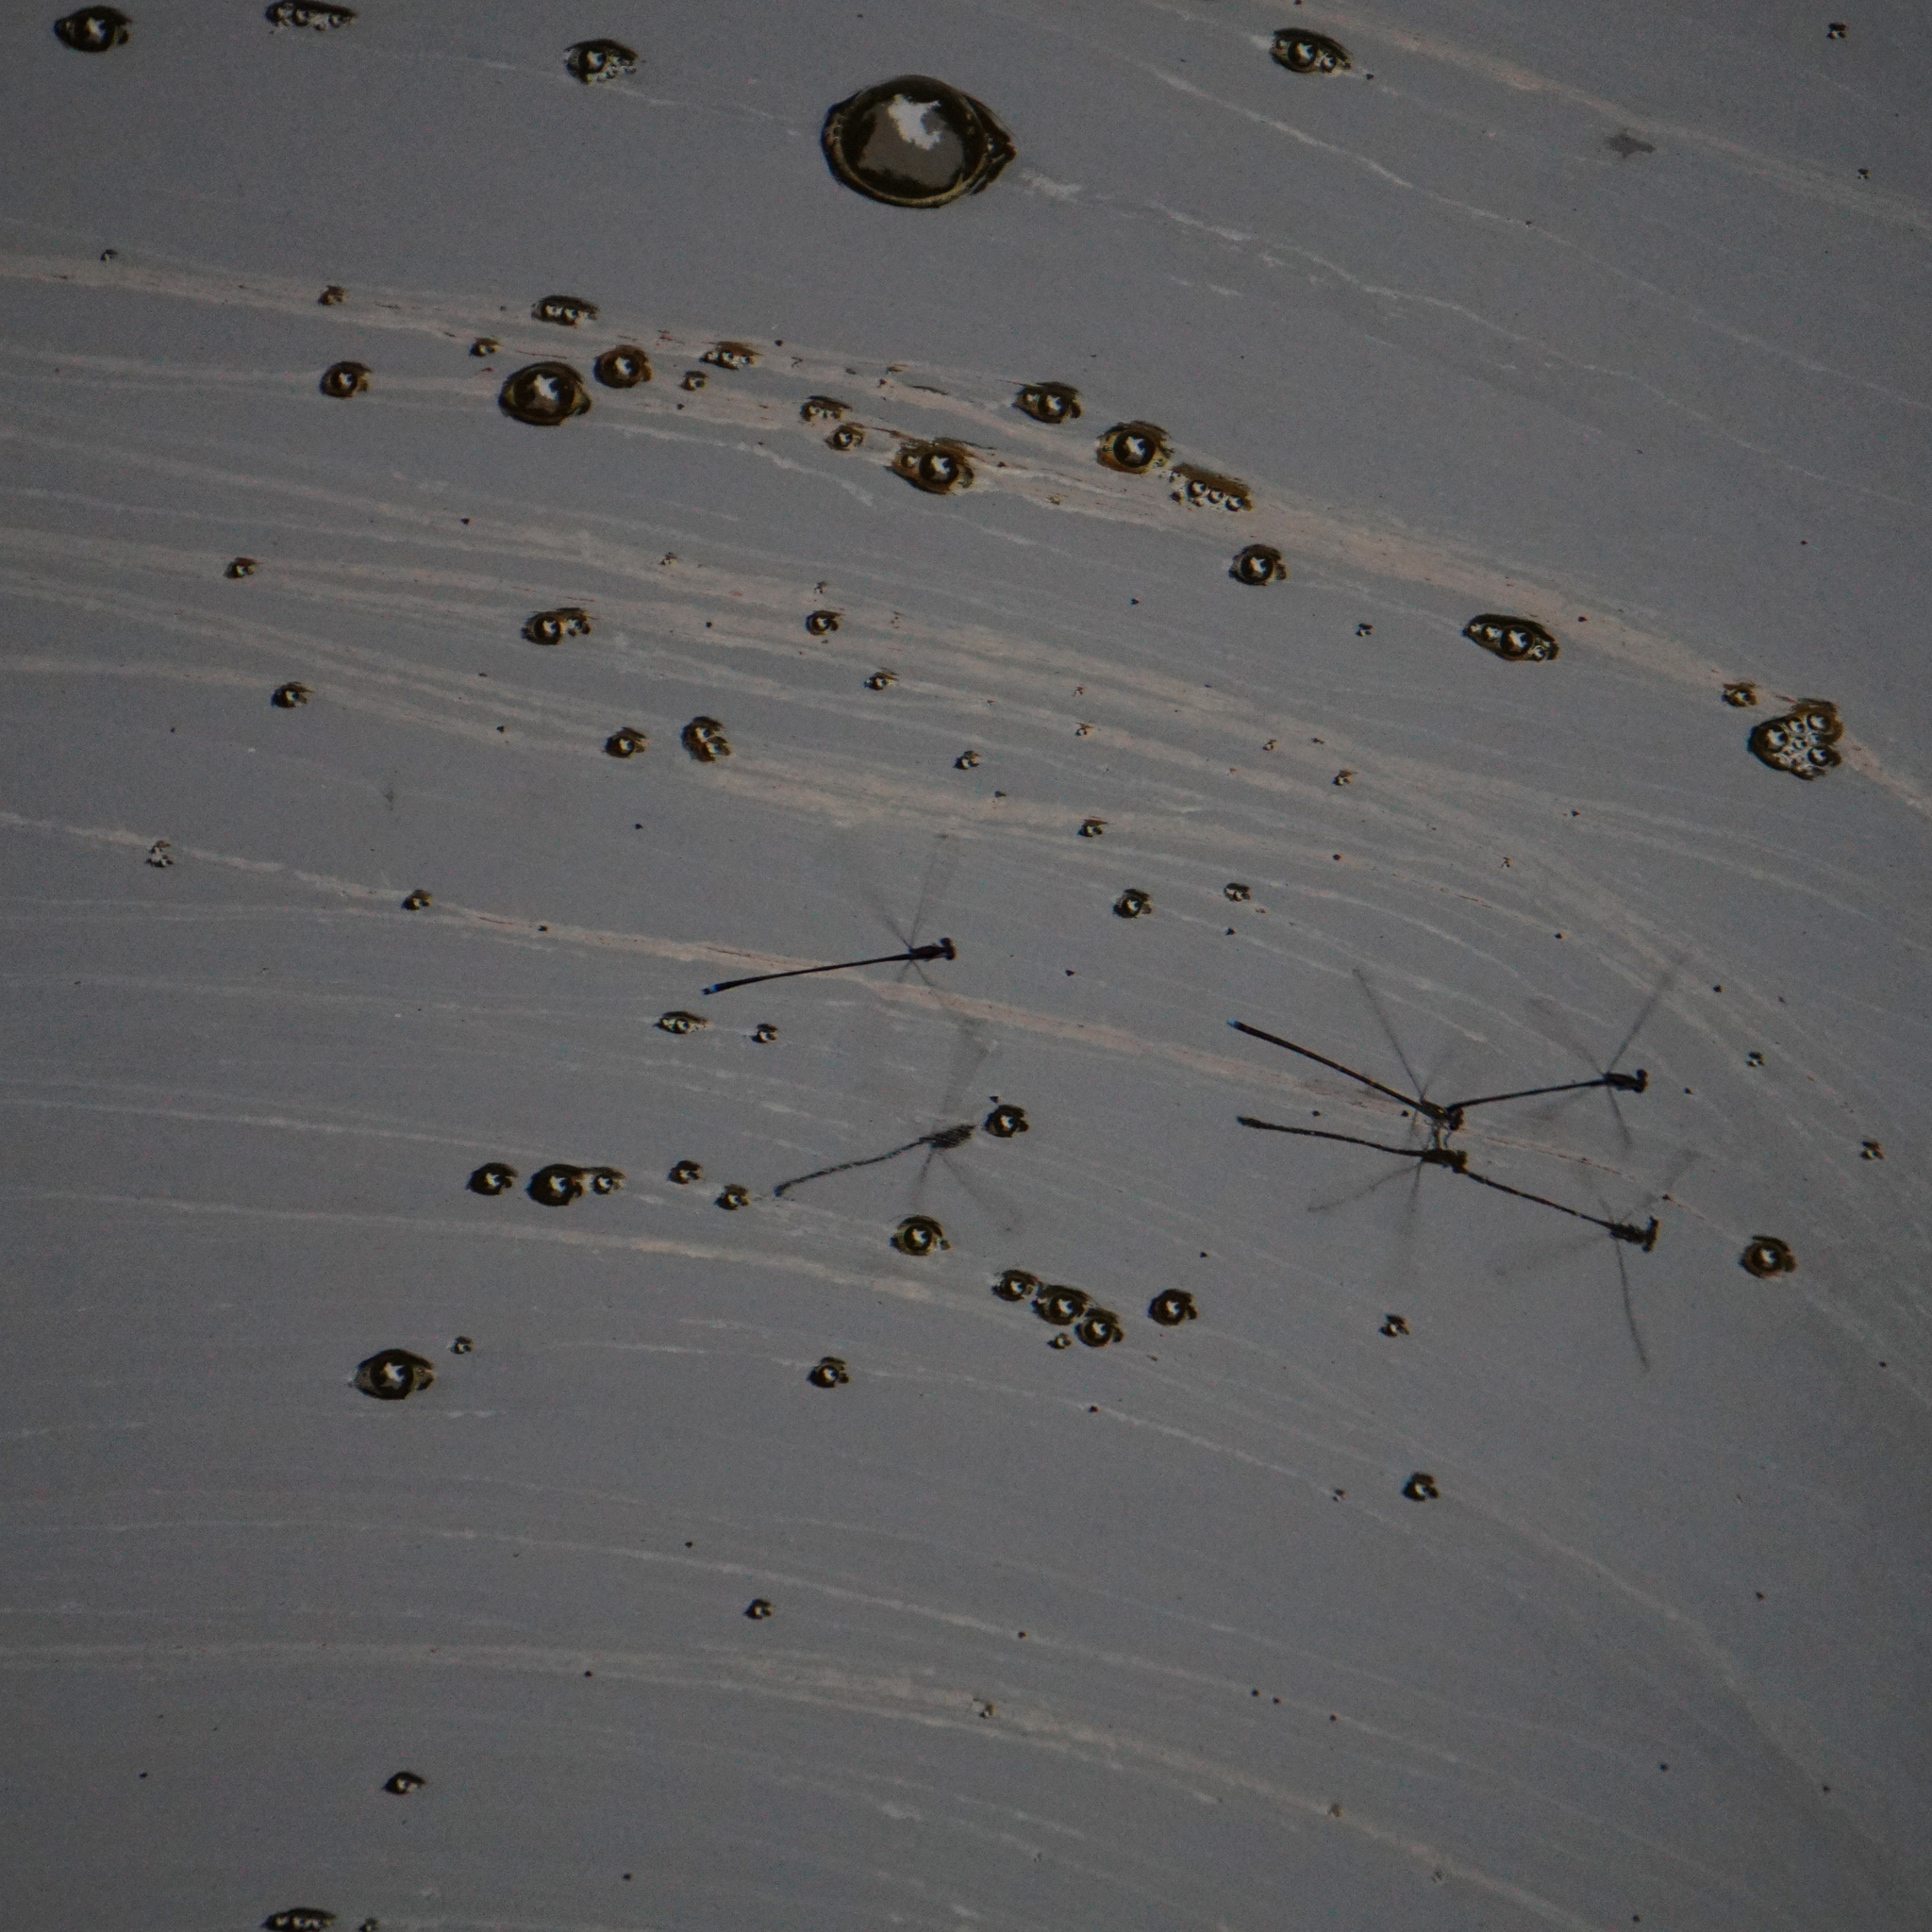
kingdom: Animalia
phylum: Arthropoda
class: Insecta
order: Odonata
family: Coenagrionidae
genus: Enallagma
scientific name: Enallagma weewa
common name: Blackwater bluet
